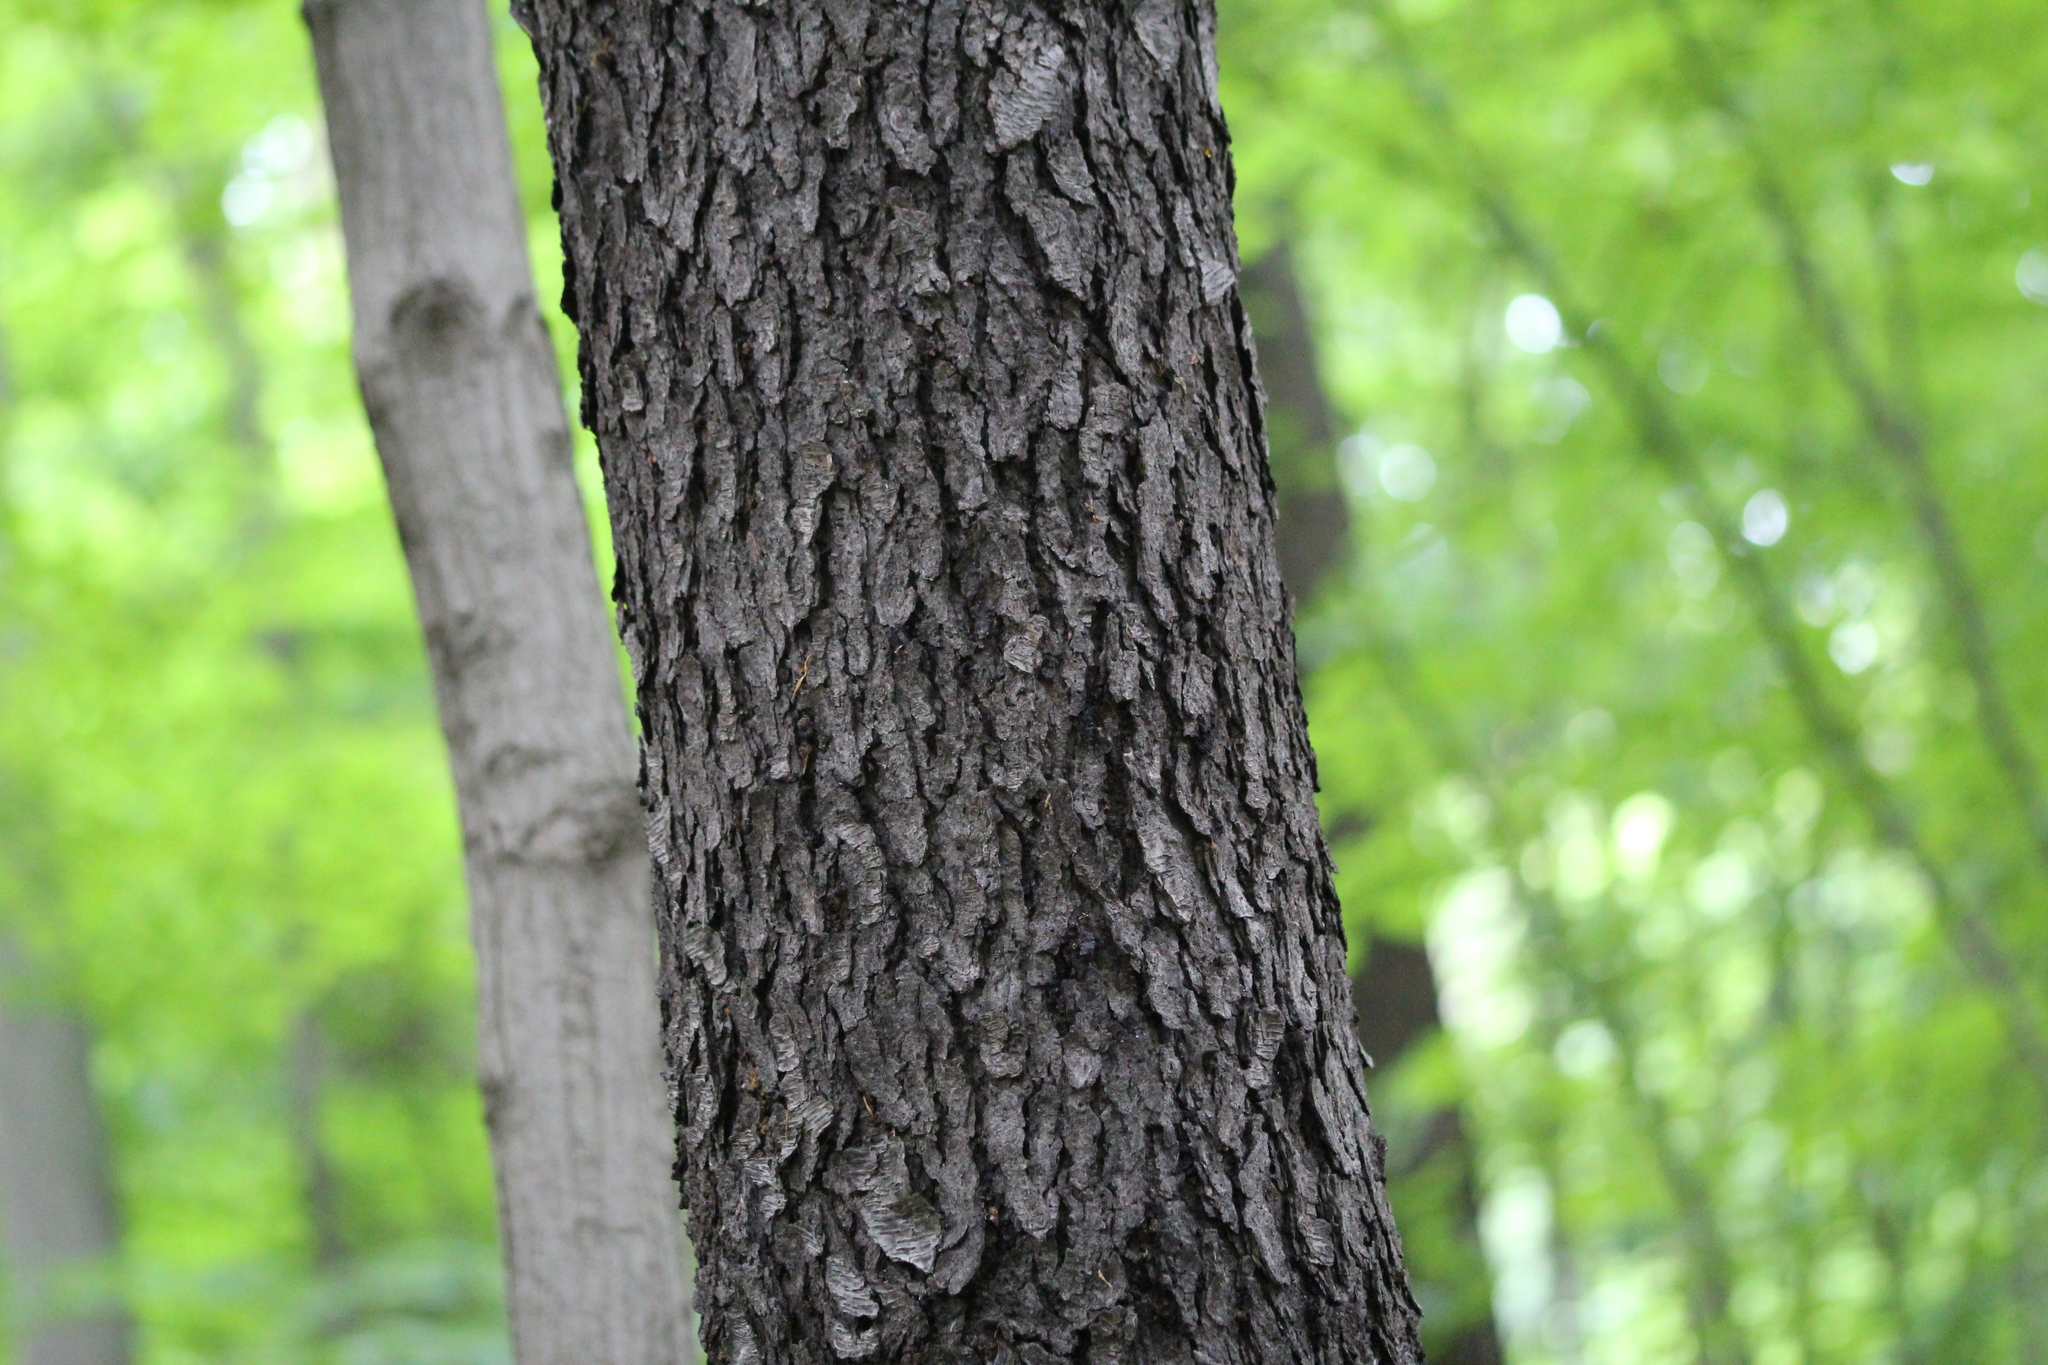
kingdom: Plantae
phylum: Tracheophyta
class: Magnoliopsida
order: Rosales
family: Rosaceae
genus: Prunus
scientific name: Prunus serotina
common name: Black cherry
